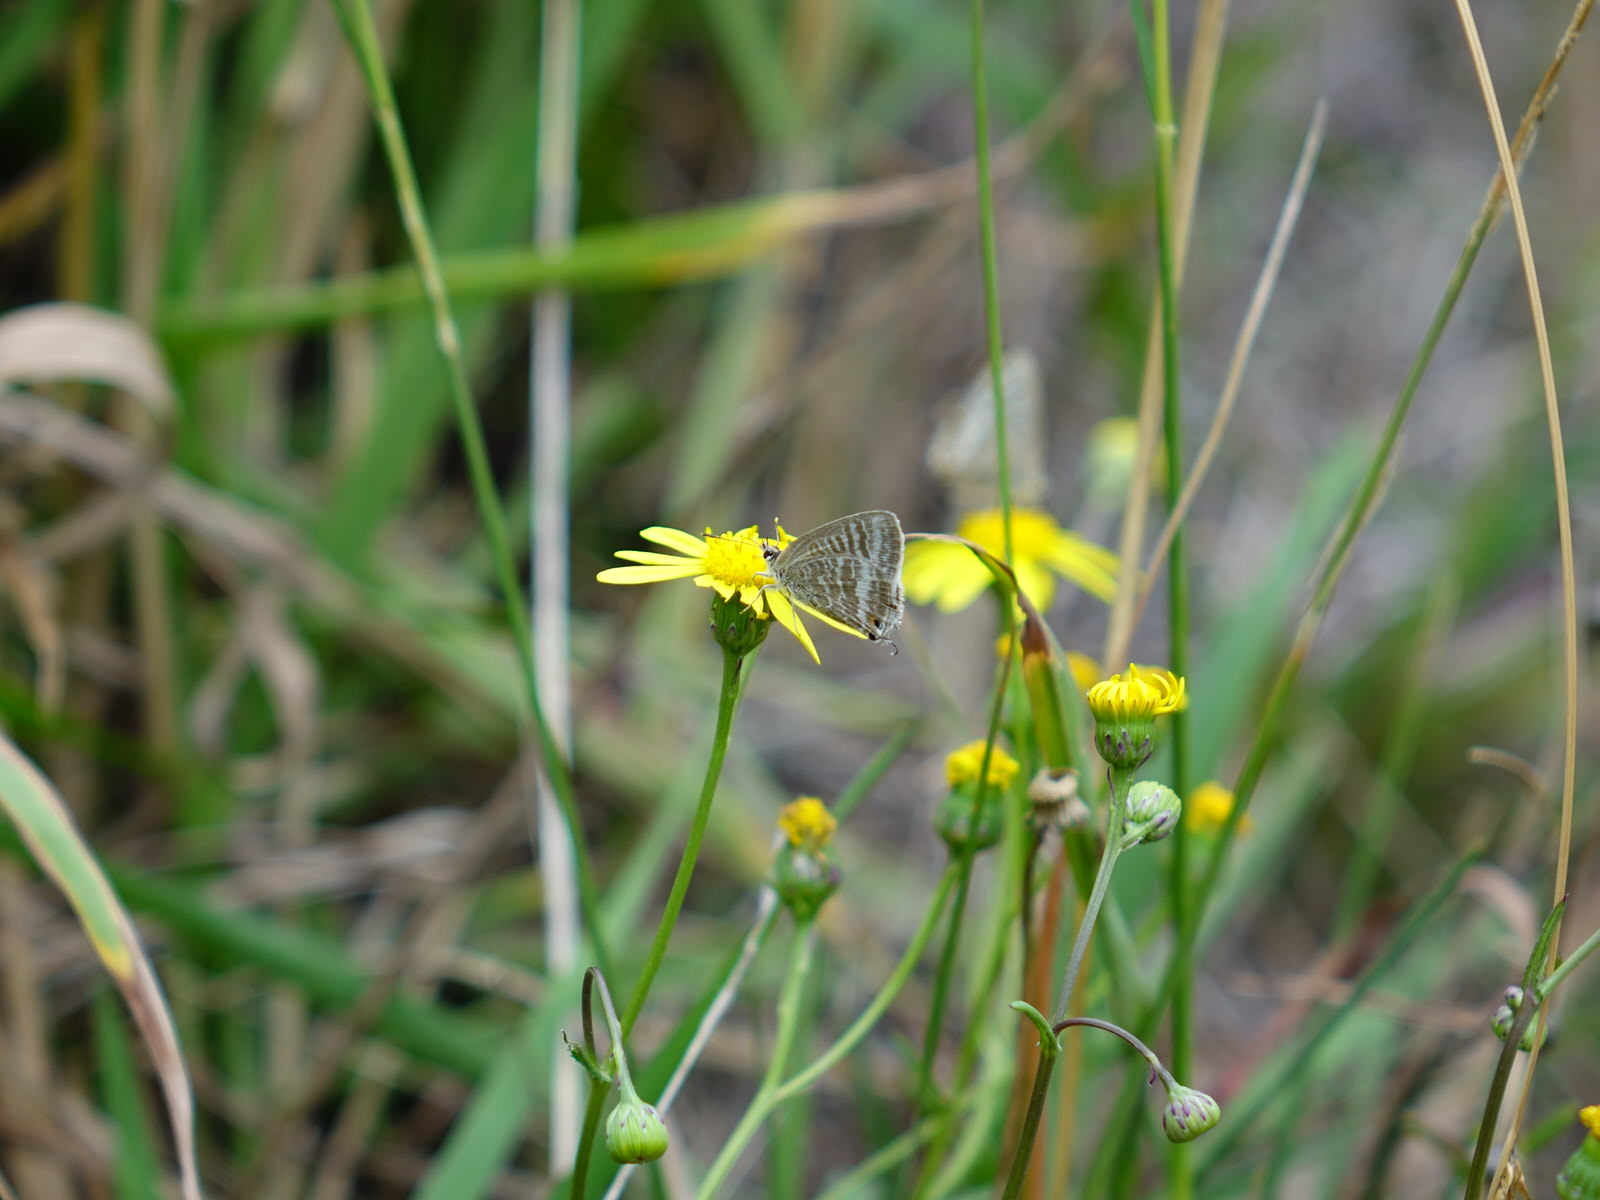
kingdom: Animalia
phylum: Arthropoda
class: Insecta
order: Lepidoptera
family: Lycaenidae
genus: Lampides
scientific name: Lampides boeticus
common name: Long-tailed blue
